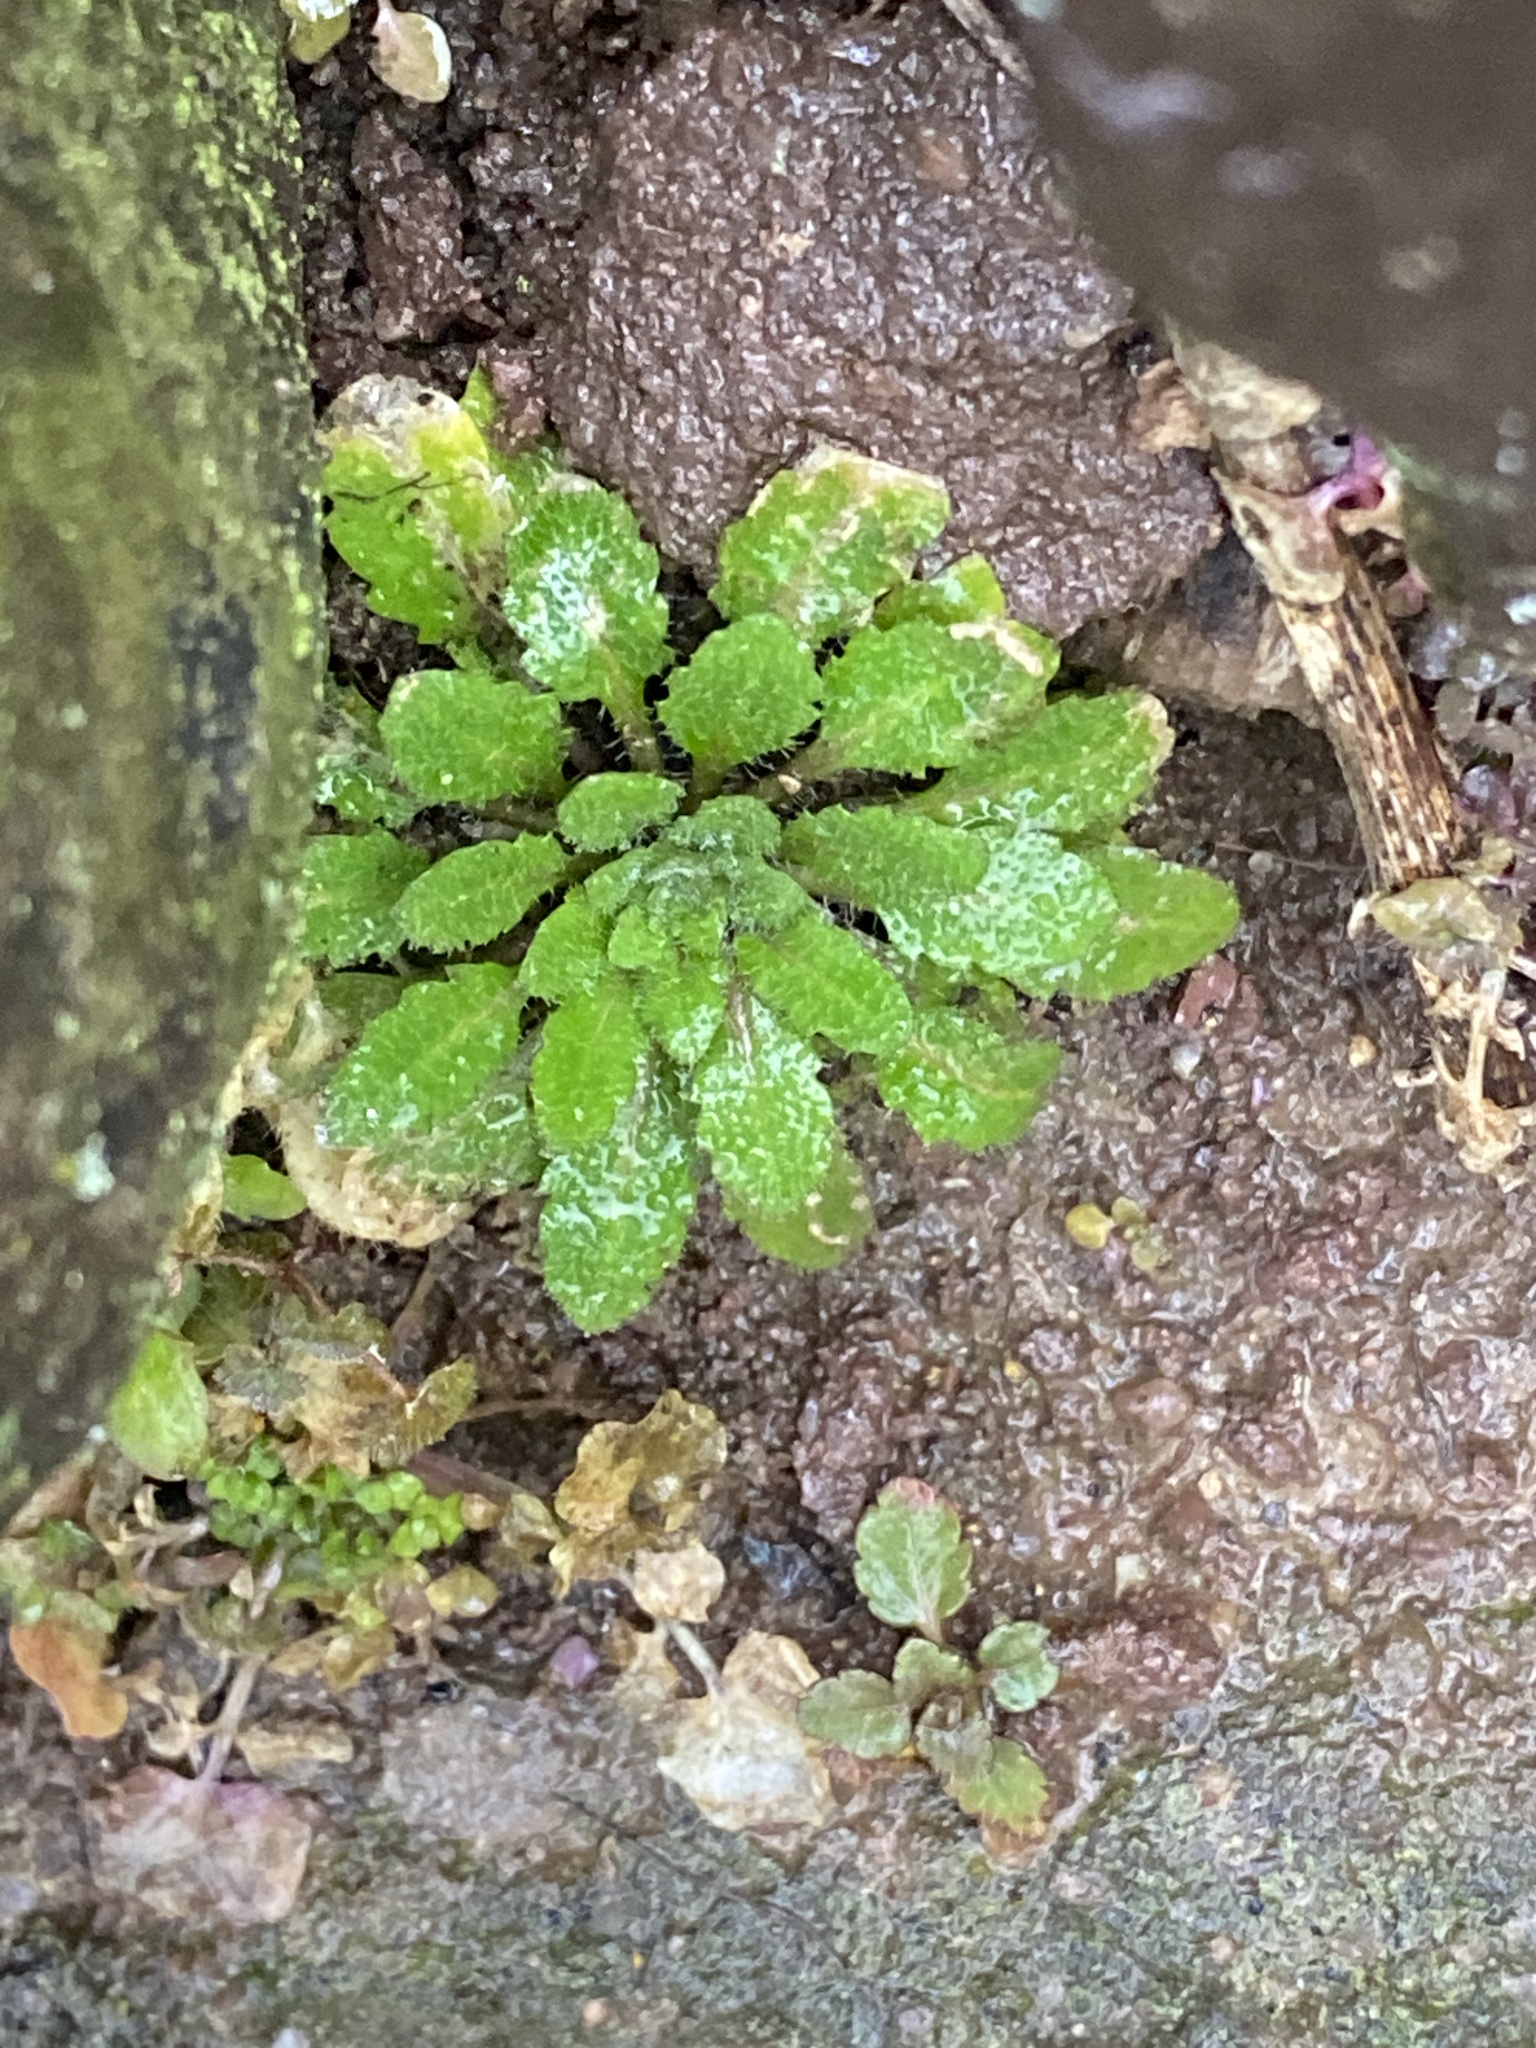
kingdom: Plantae
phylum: Tracheophyta
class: Magnoliopsida
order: Brassicales
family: Brassicaceae
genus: Arabidopsis
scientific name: Arabidopsis thaliana
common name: Thale cress
